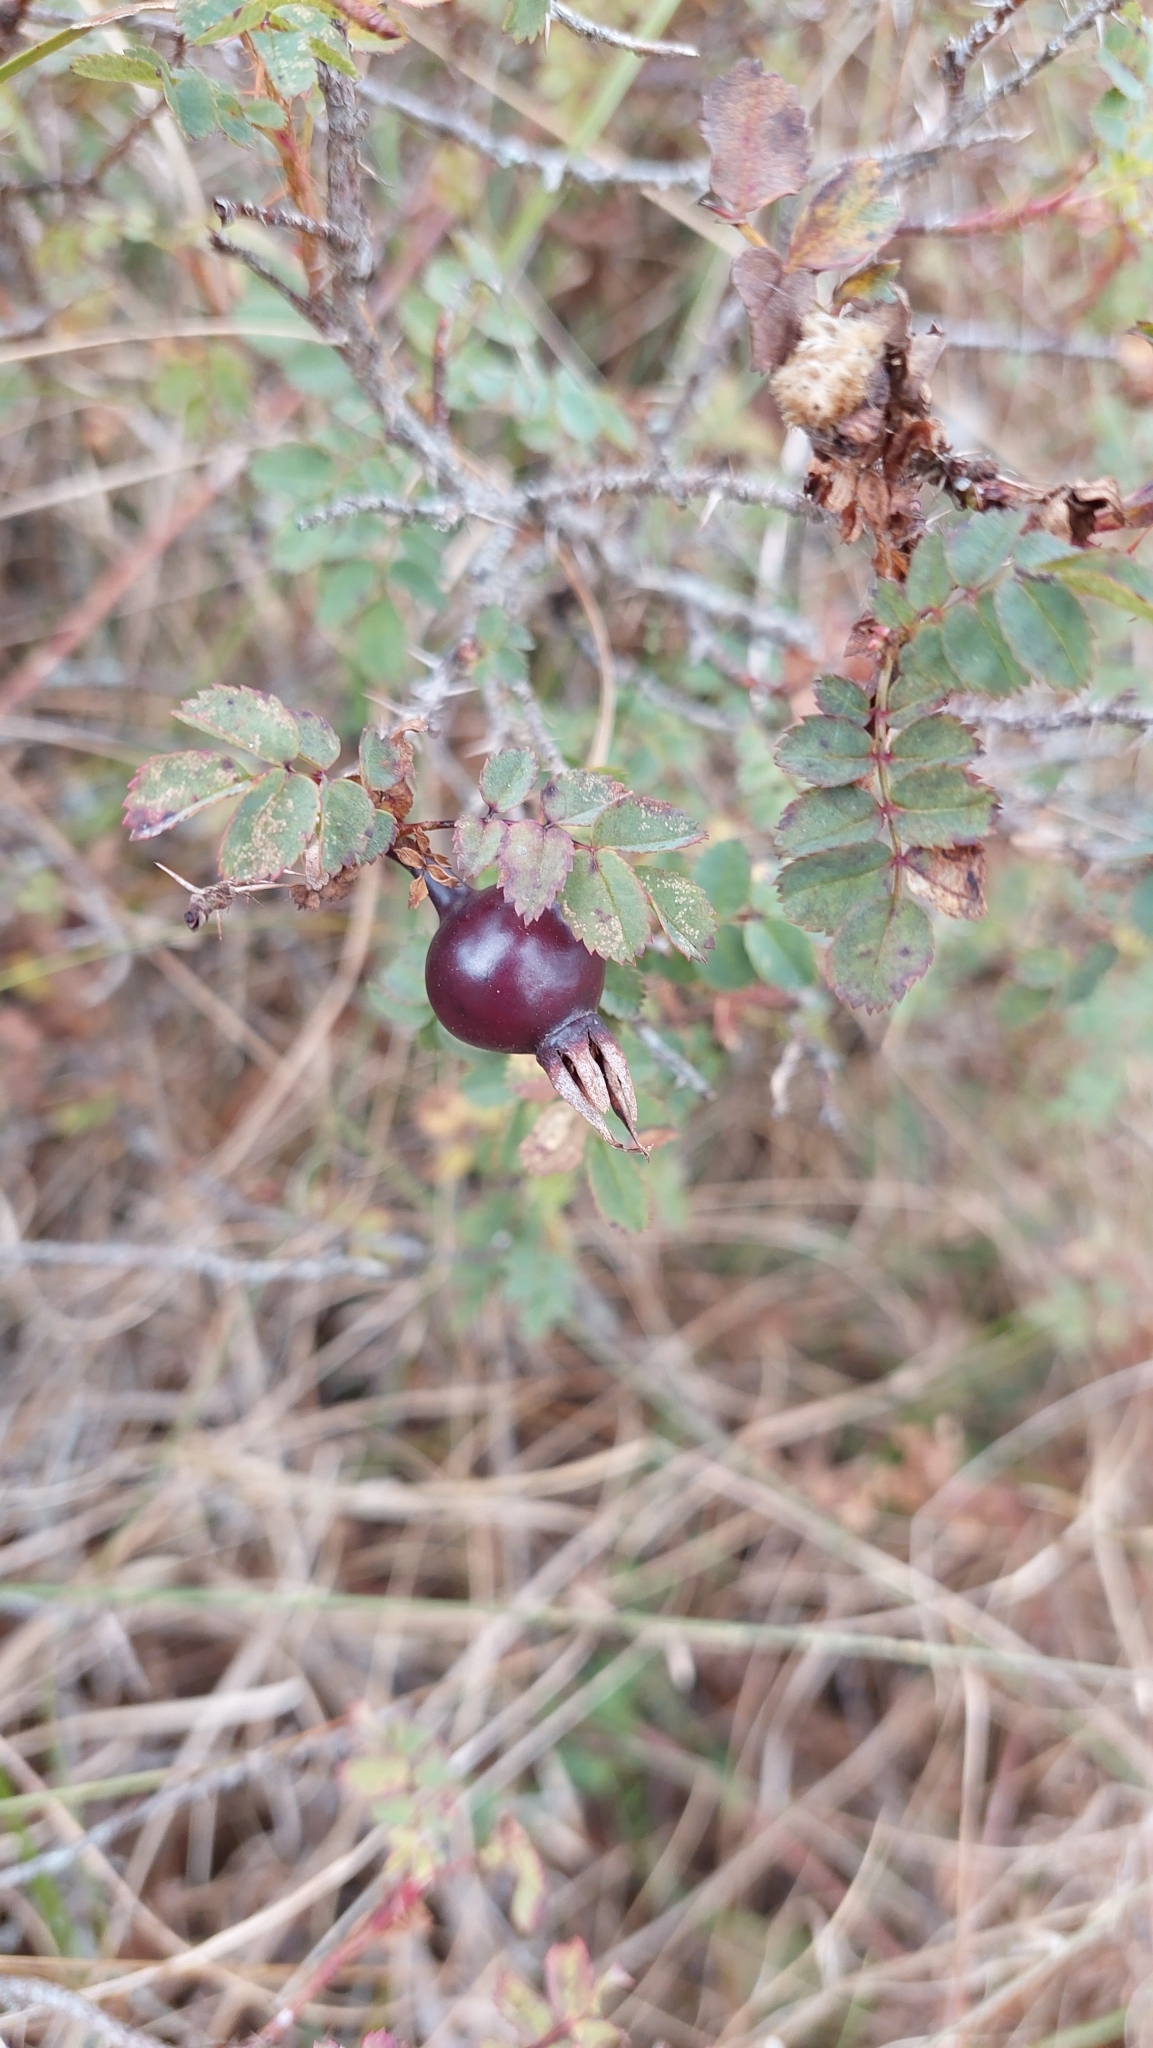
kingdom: Plantae
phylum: Tracheophyta
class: Magnoliopsida
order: Rosales
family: Rosaceae
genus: Rosa
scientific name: Rosa spinosissima
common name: Burnet rose
